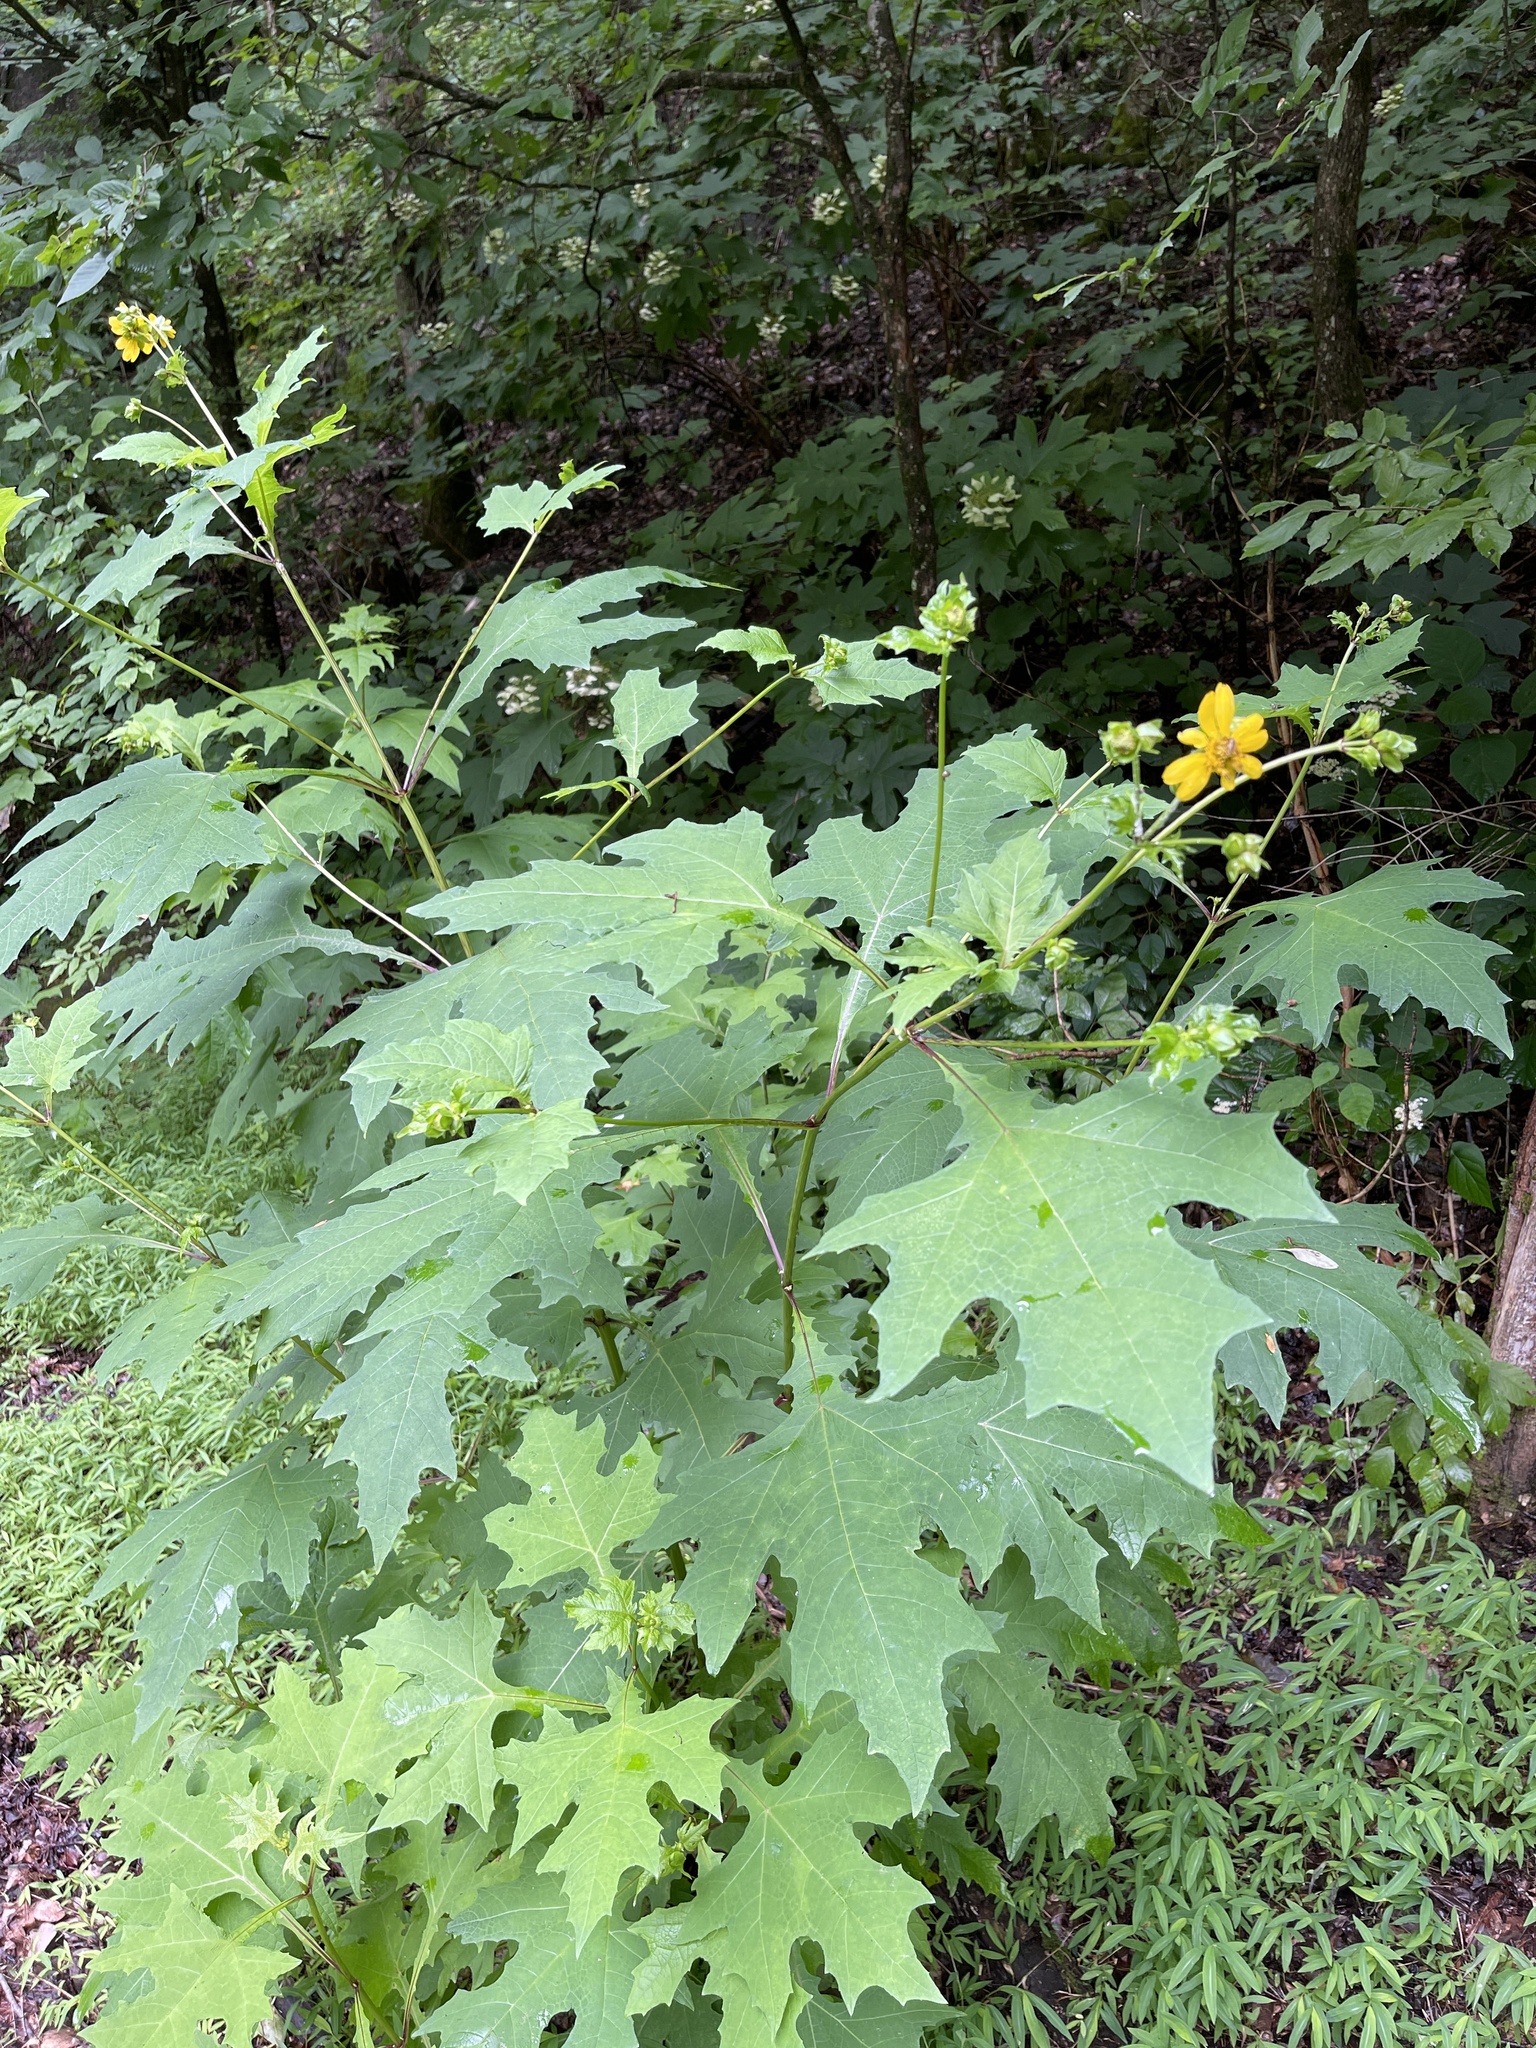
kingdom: Plantae
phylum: Tracheophyta
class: Magnoliopsida
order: Asterales
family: Asteraceae
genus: Smallanthus
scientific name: Smallanthus uvedalia
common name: Bear's-foot
